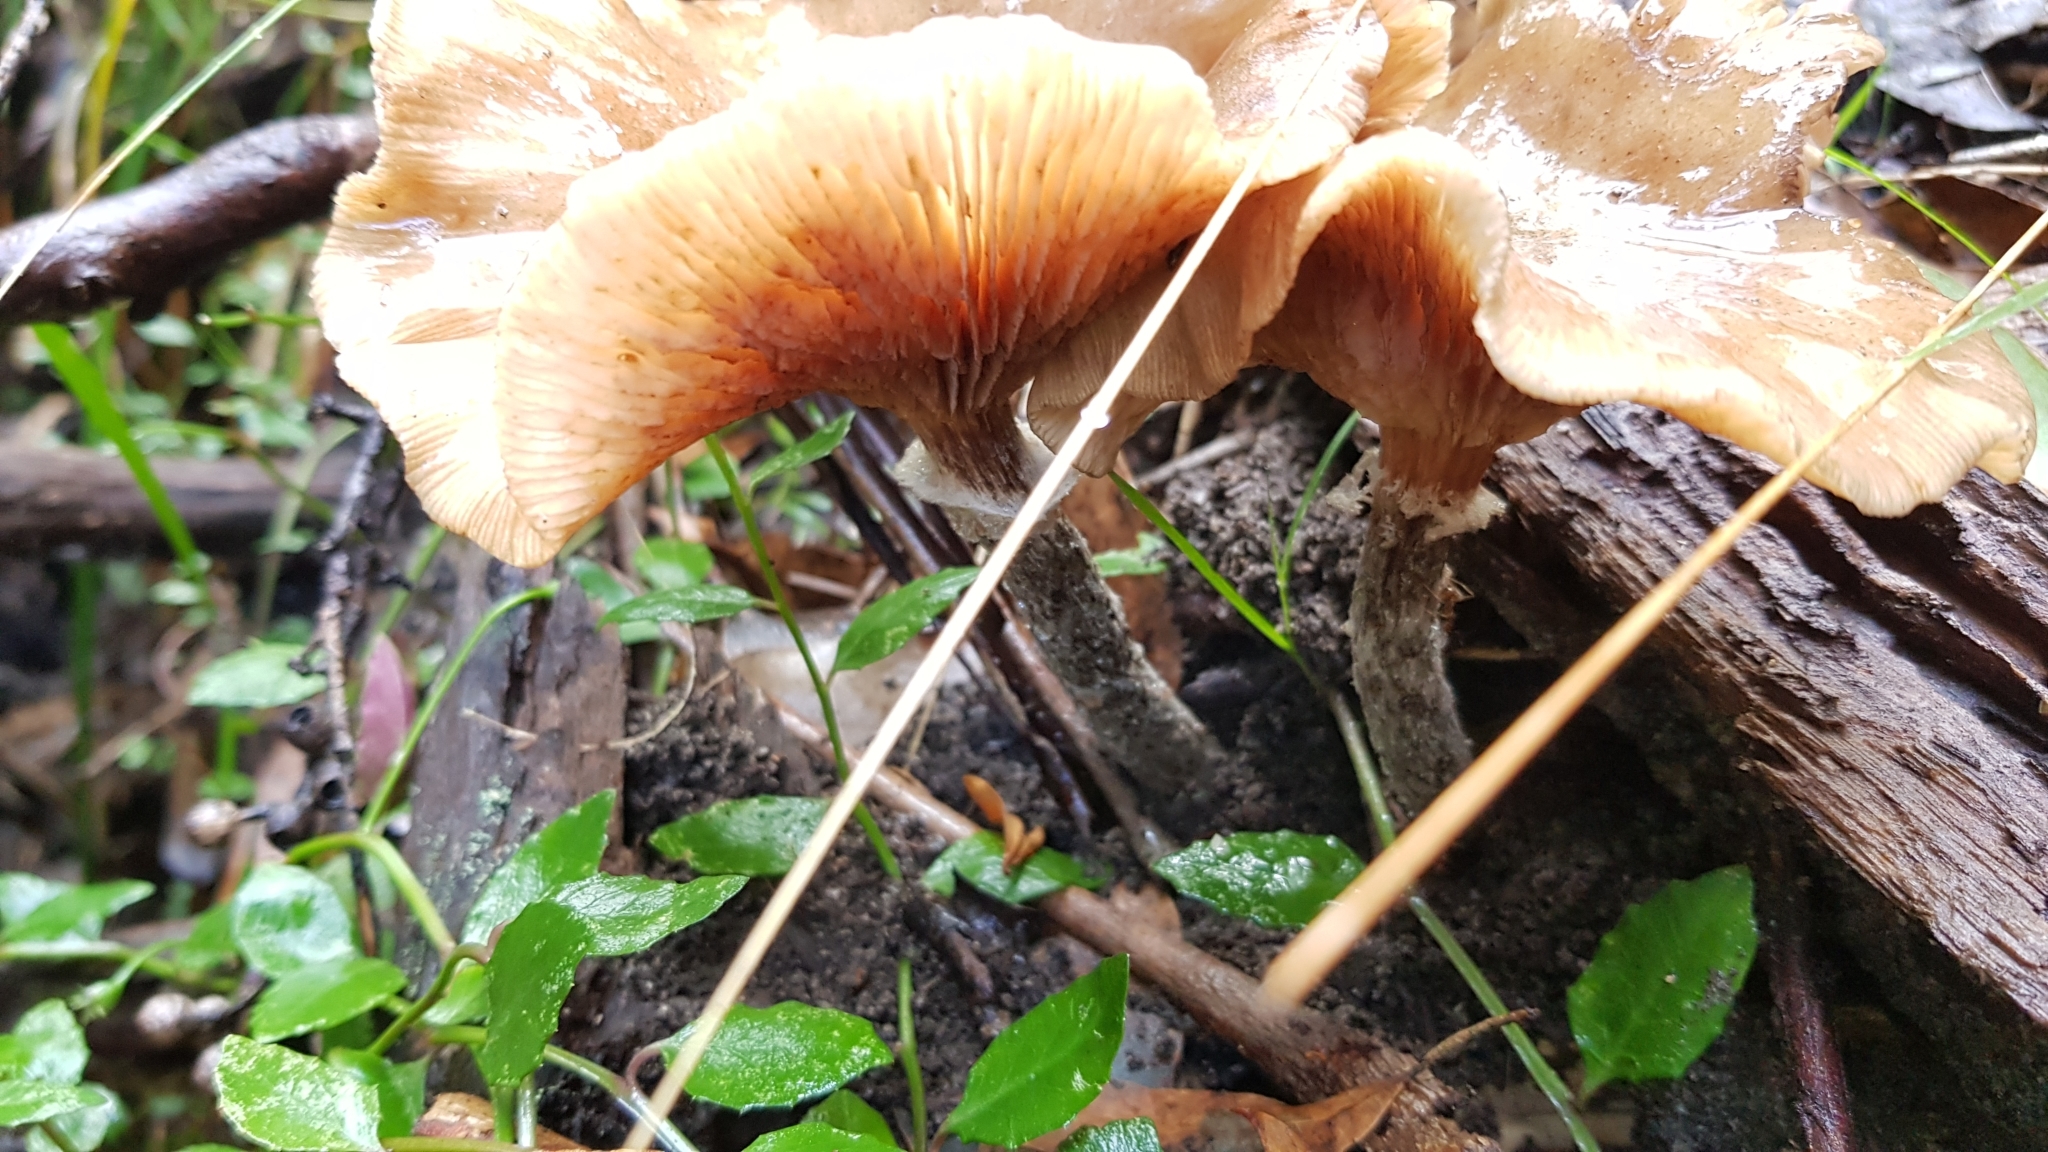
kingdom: Fungi
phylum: Basidiomycota
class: Agaricomycetes
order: Agaricales
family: Physalacriaceae
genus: Armillaria
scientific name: Armillaria novae-zelandiae
